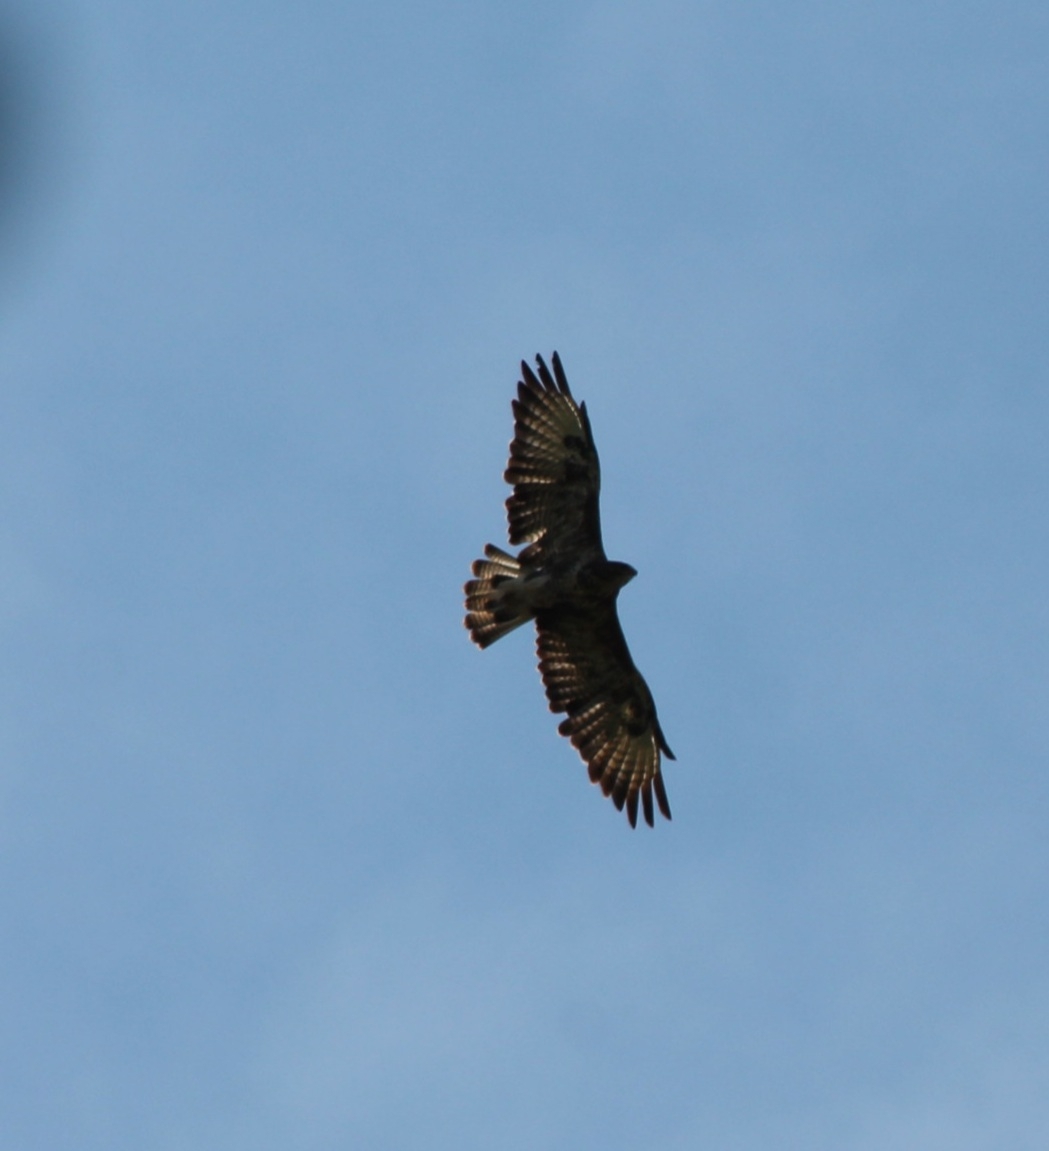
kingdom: Animalia
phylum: Chordata
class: Aves
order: Accipitriformes
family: Accipitridae
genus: Buteo
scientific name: Buteo buteo
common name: Common buzzard
